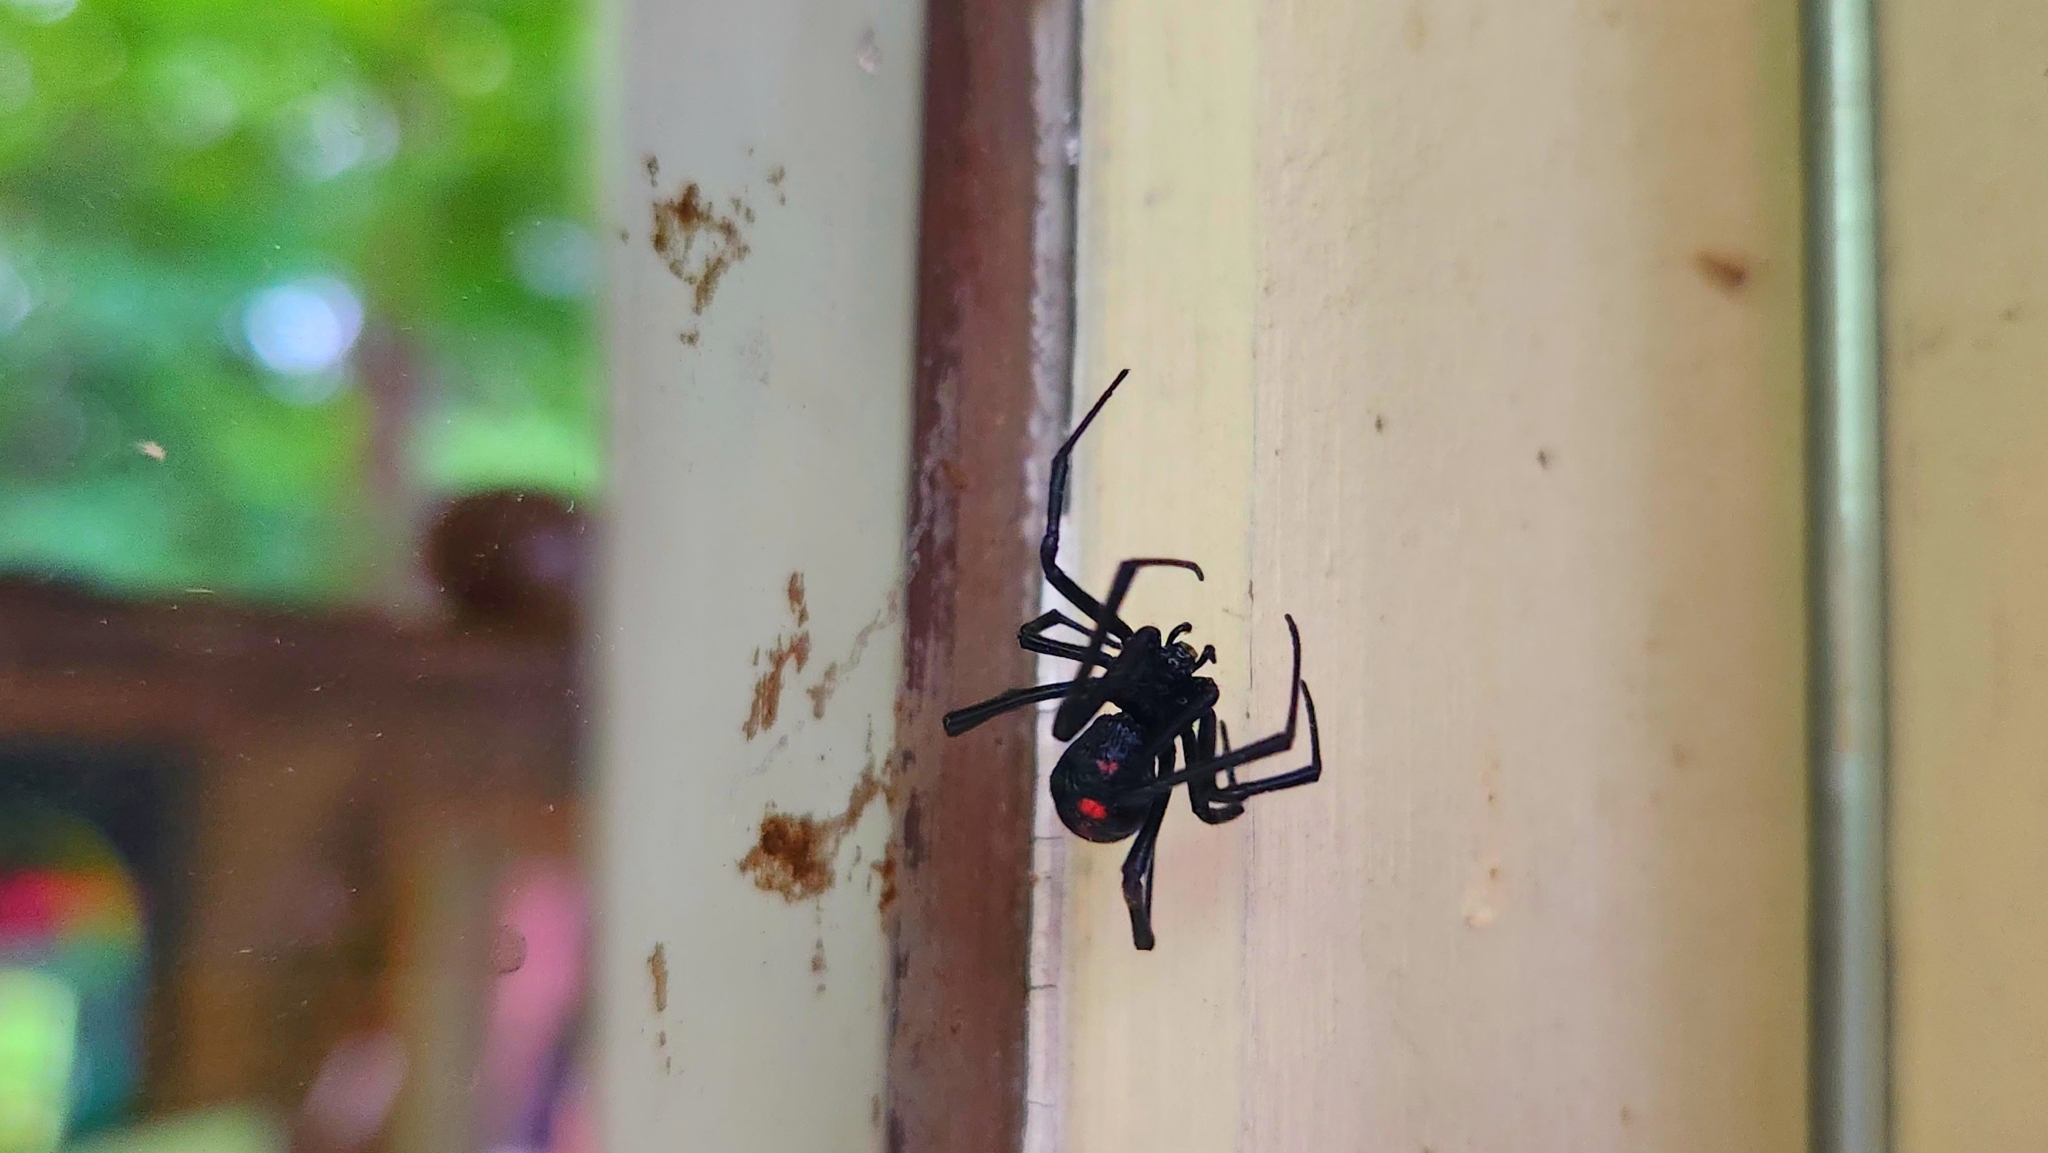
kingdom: Animalia
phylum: Arthropoda
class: Arachnida
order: Araneae
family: Theridiidae
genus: Latrodectus
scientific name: Latrodectus variolus
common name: Northern black widow
